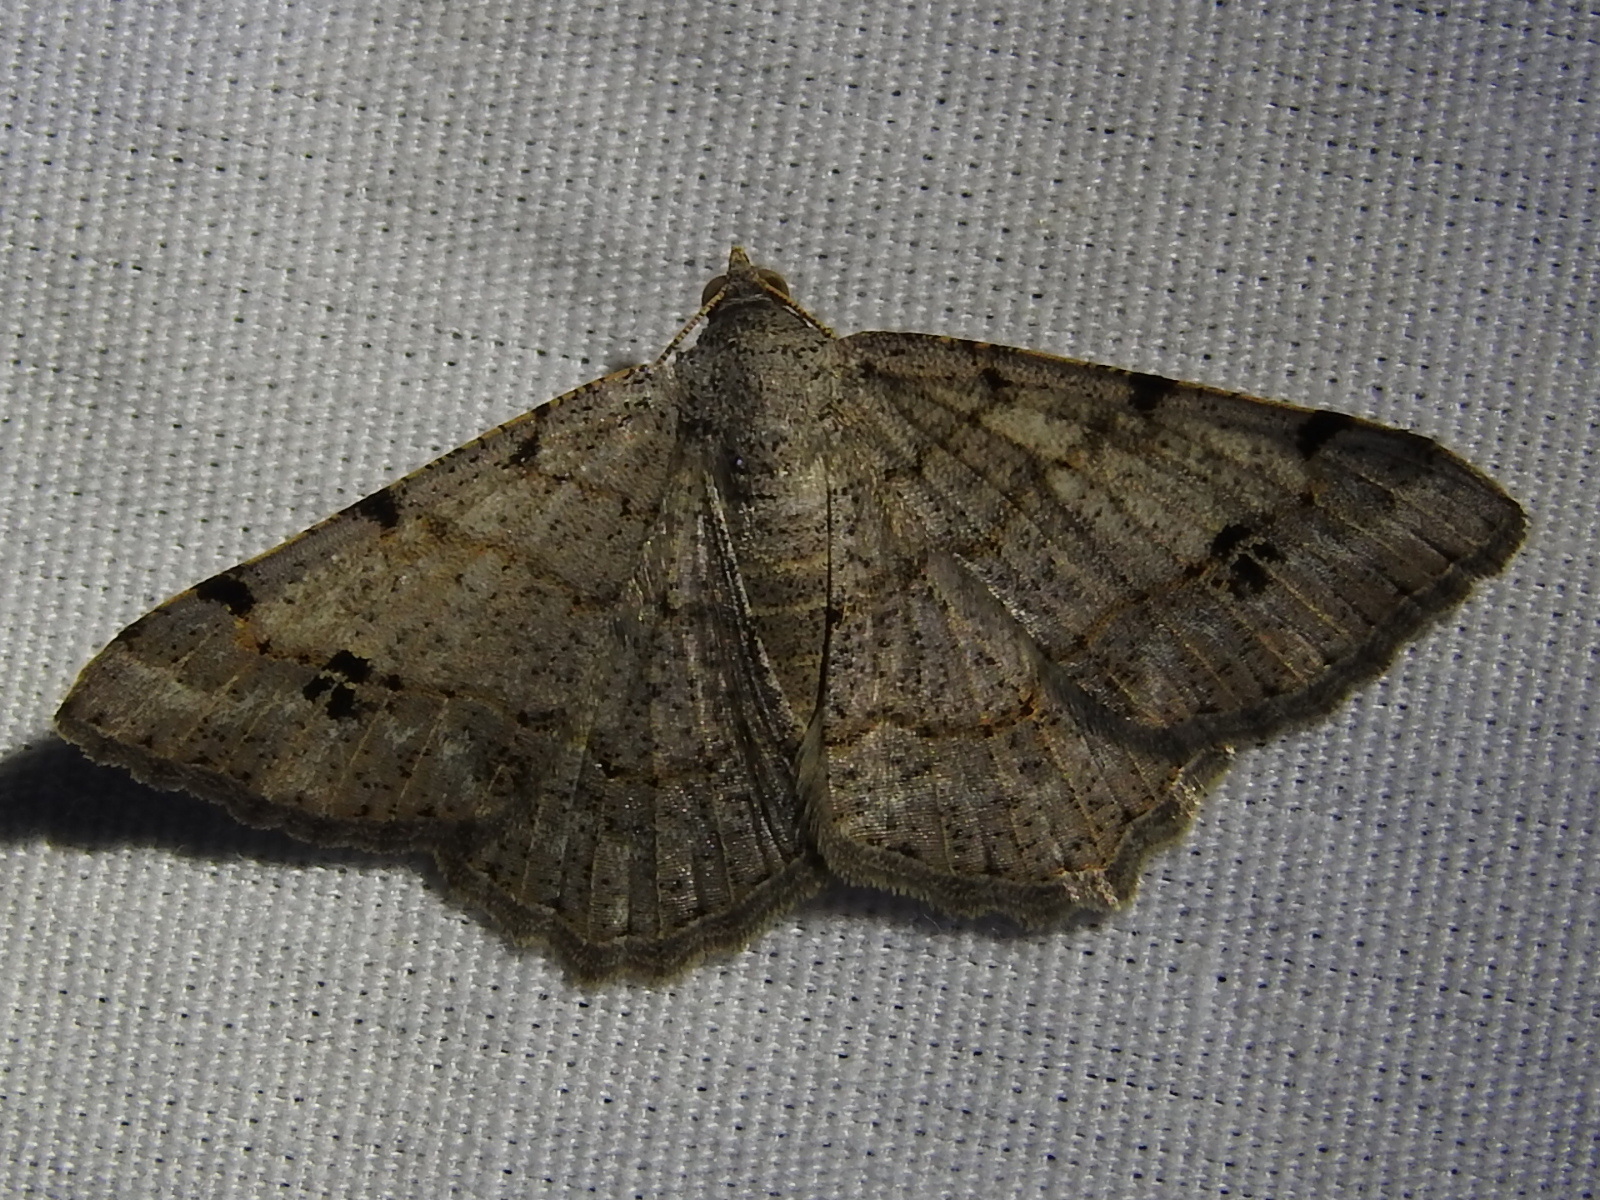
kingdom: Animalia
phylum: Arthropoda
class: Insecta
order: Lepidoptera
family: Geometridae
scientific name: Geometridae
